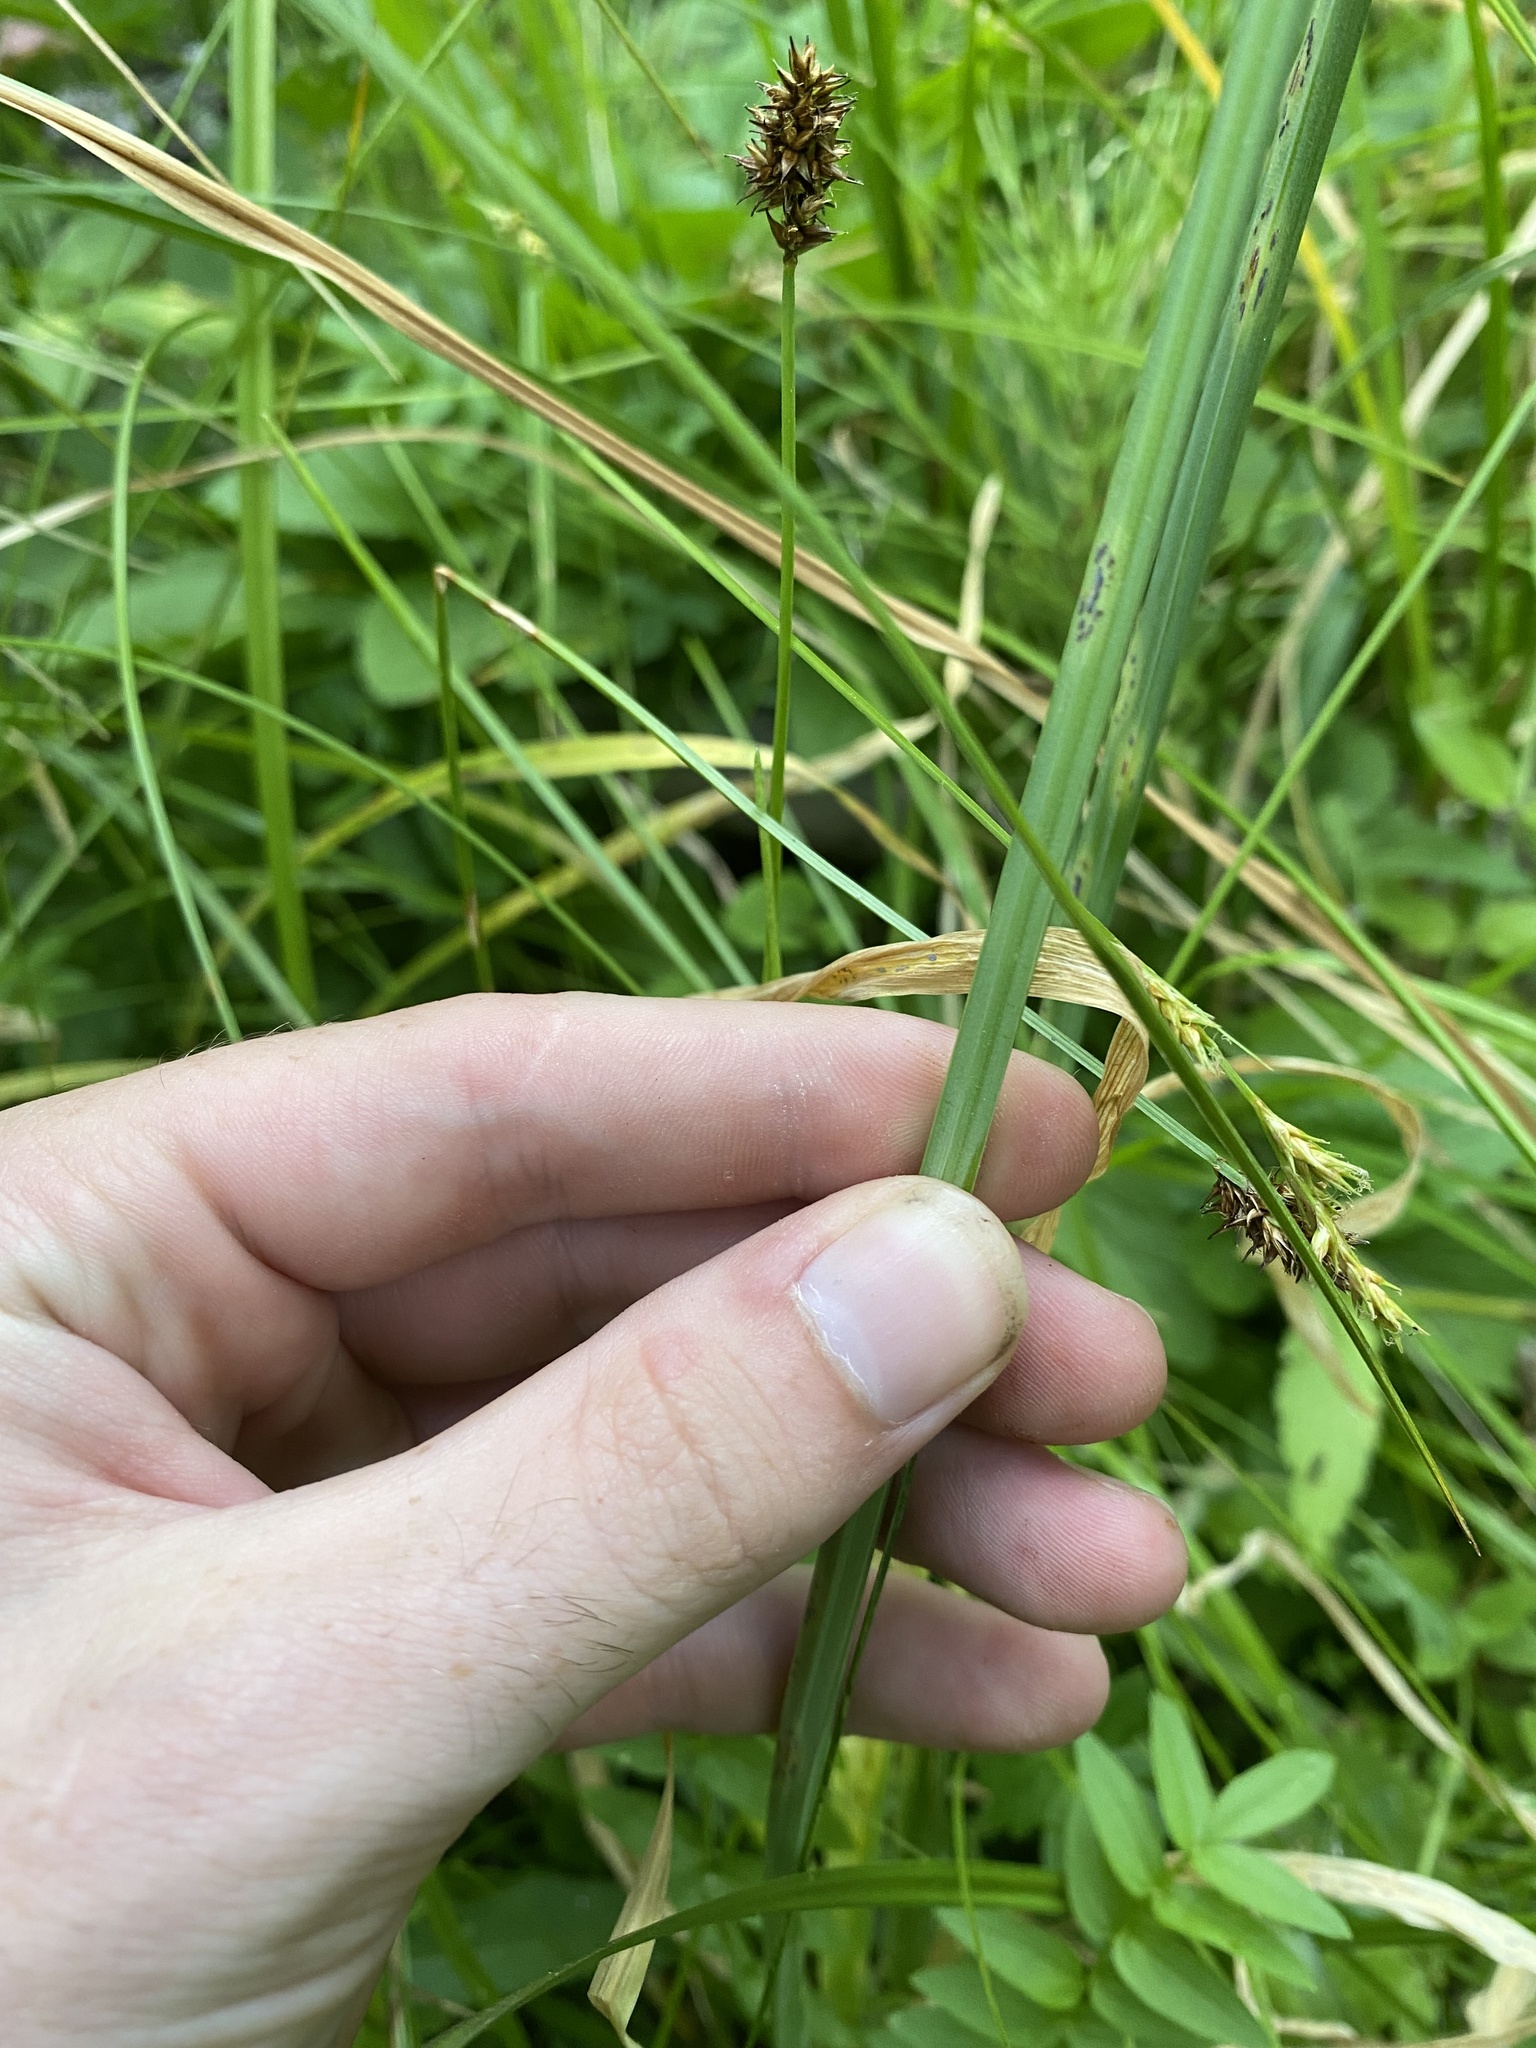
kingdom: Plantae
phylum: Tracheophyta
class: Liliopsida
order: Asparagales
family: Amaryllidaceae
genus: Allium
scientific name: Allium validum
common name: Pacific mountain onion
